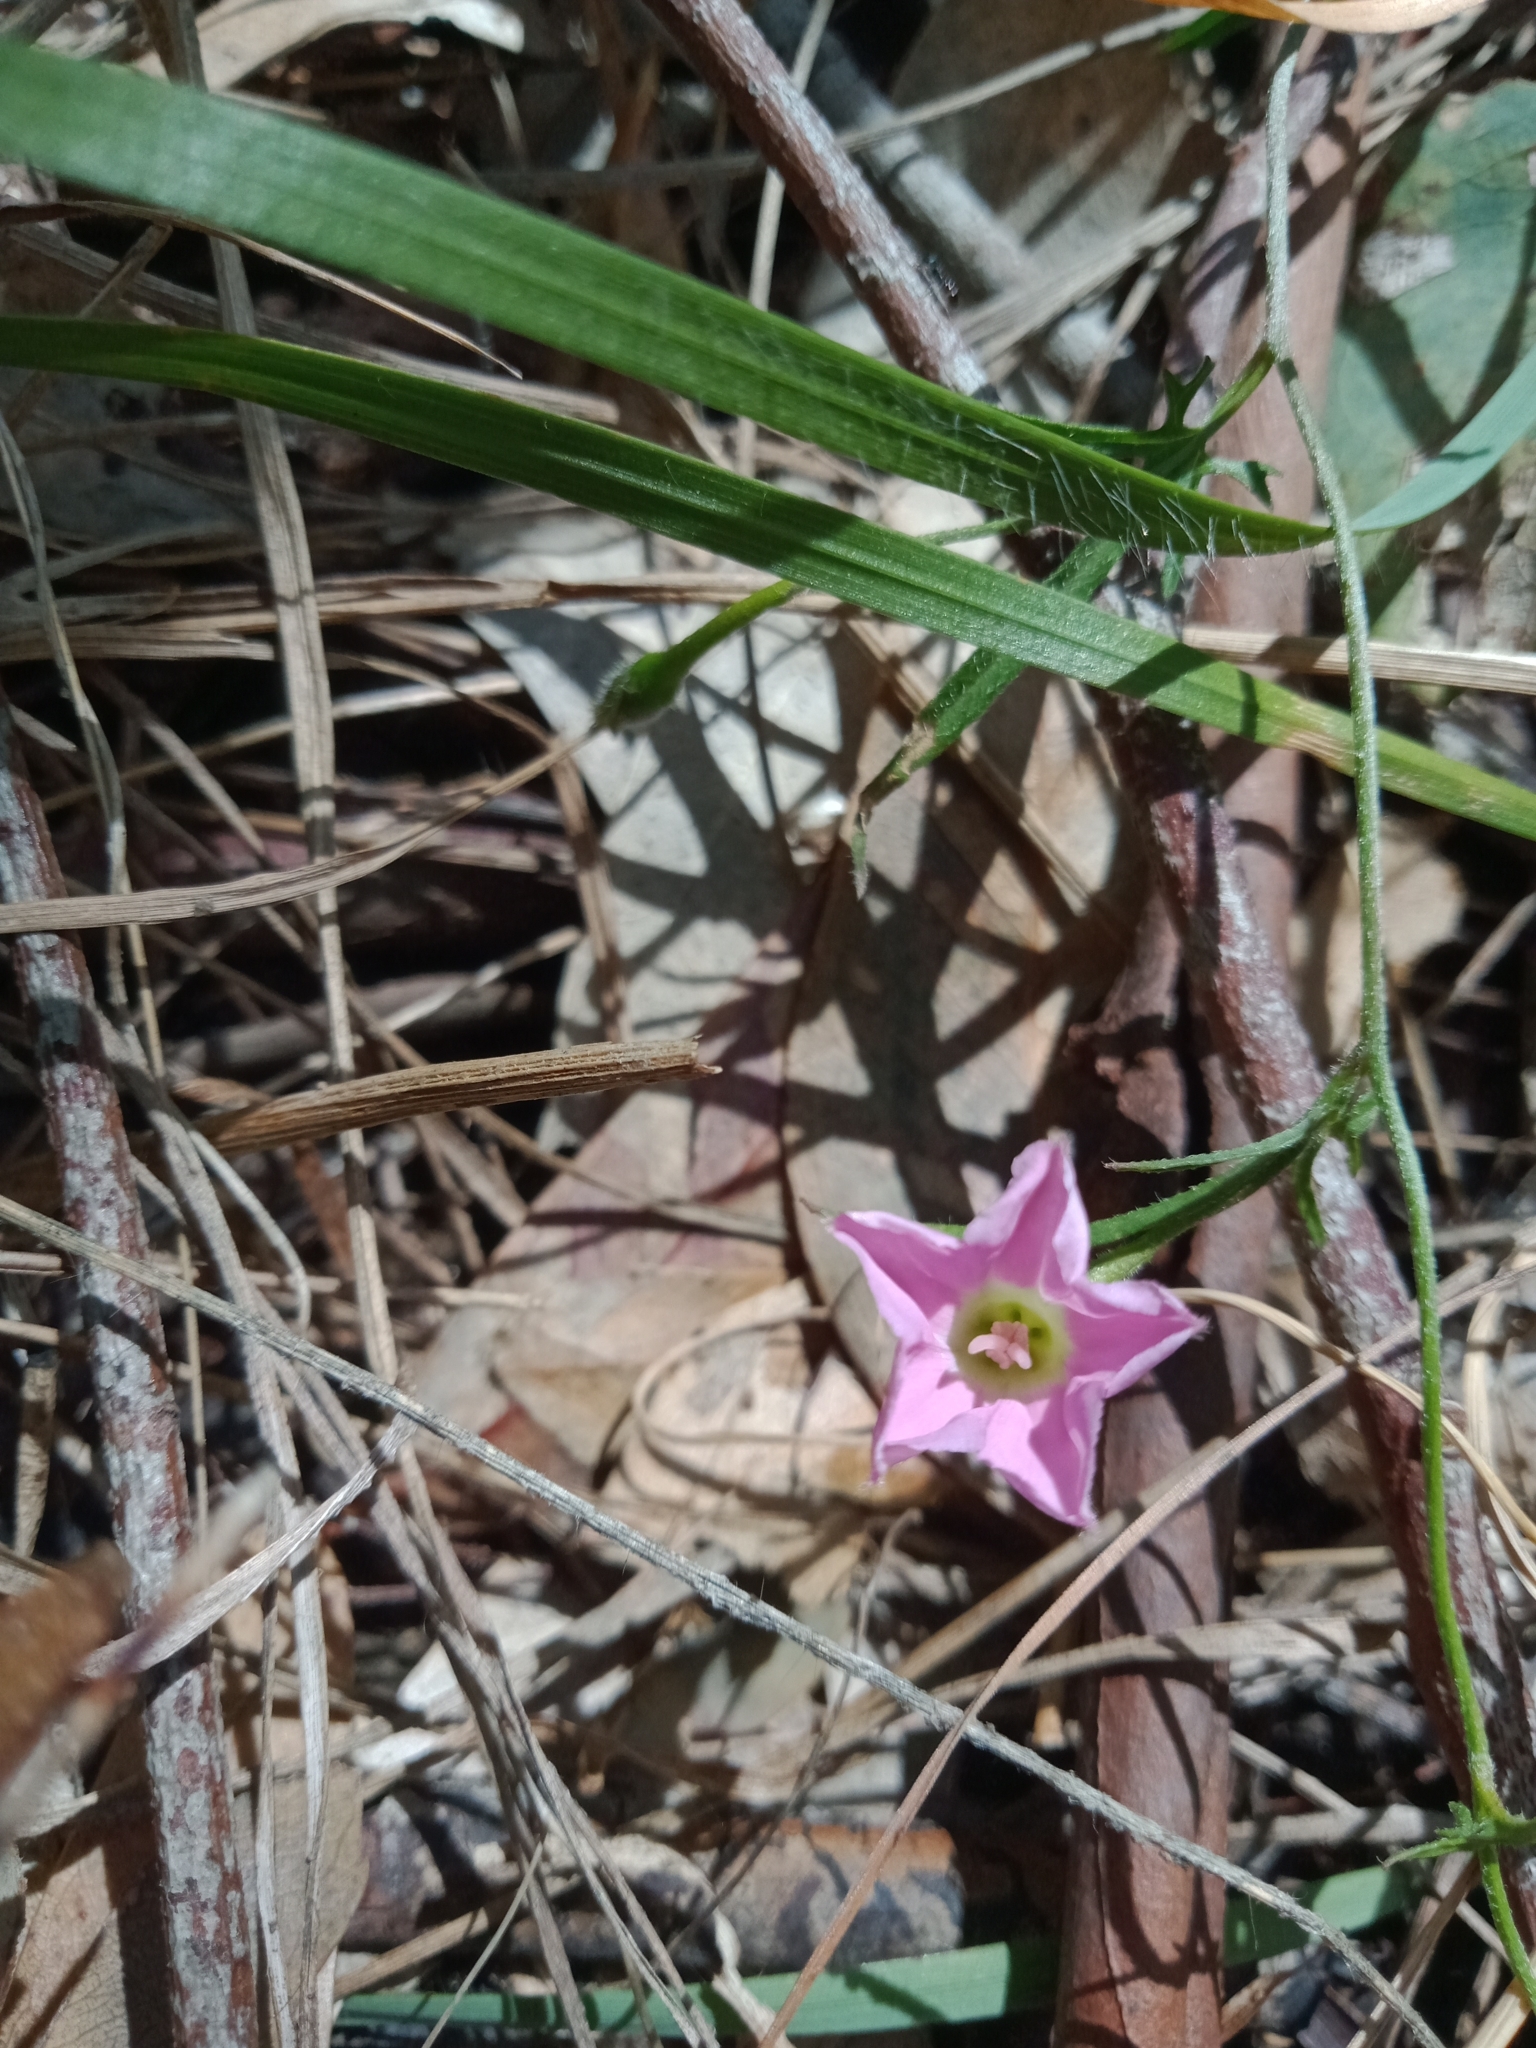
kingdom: Plantae
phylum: Tracheophyta
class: Magnoliopsida
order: Solanales
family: Convolvulaceae
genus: Convolvulus
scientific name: Convolvulus angustissimus
